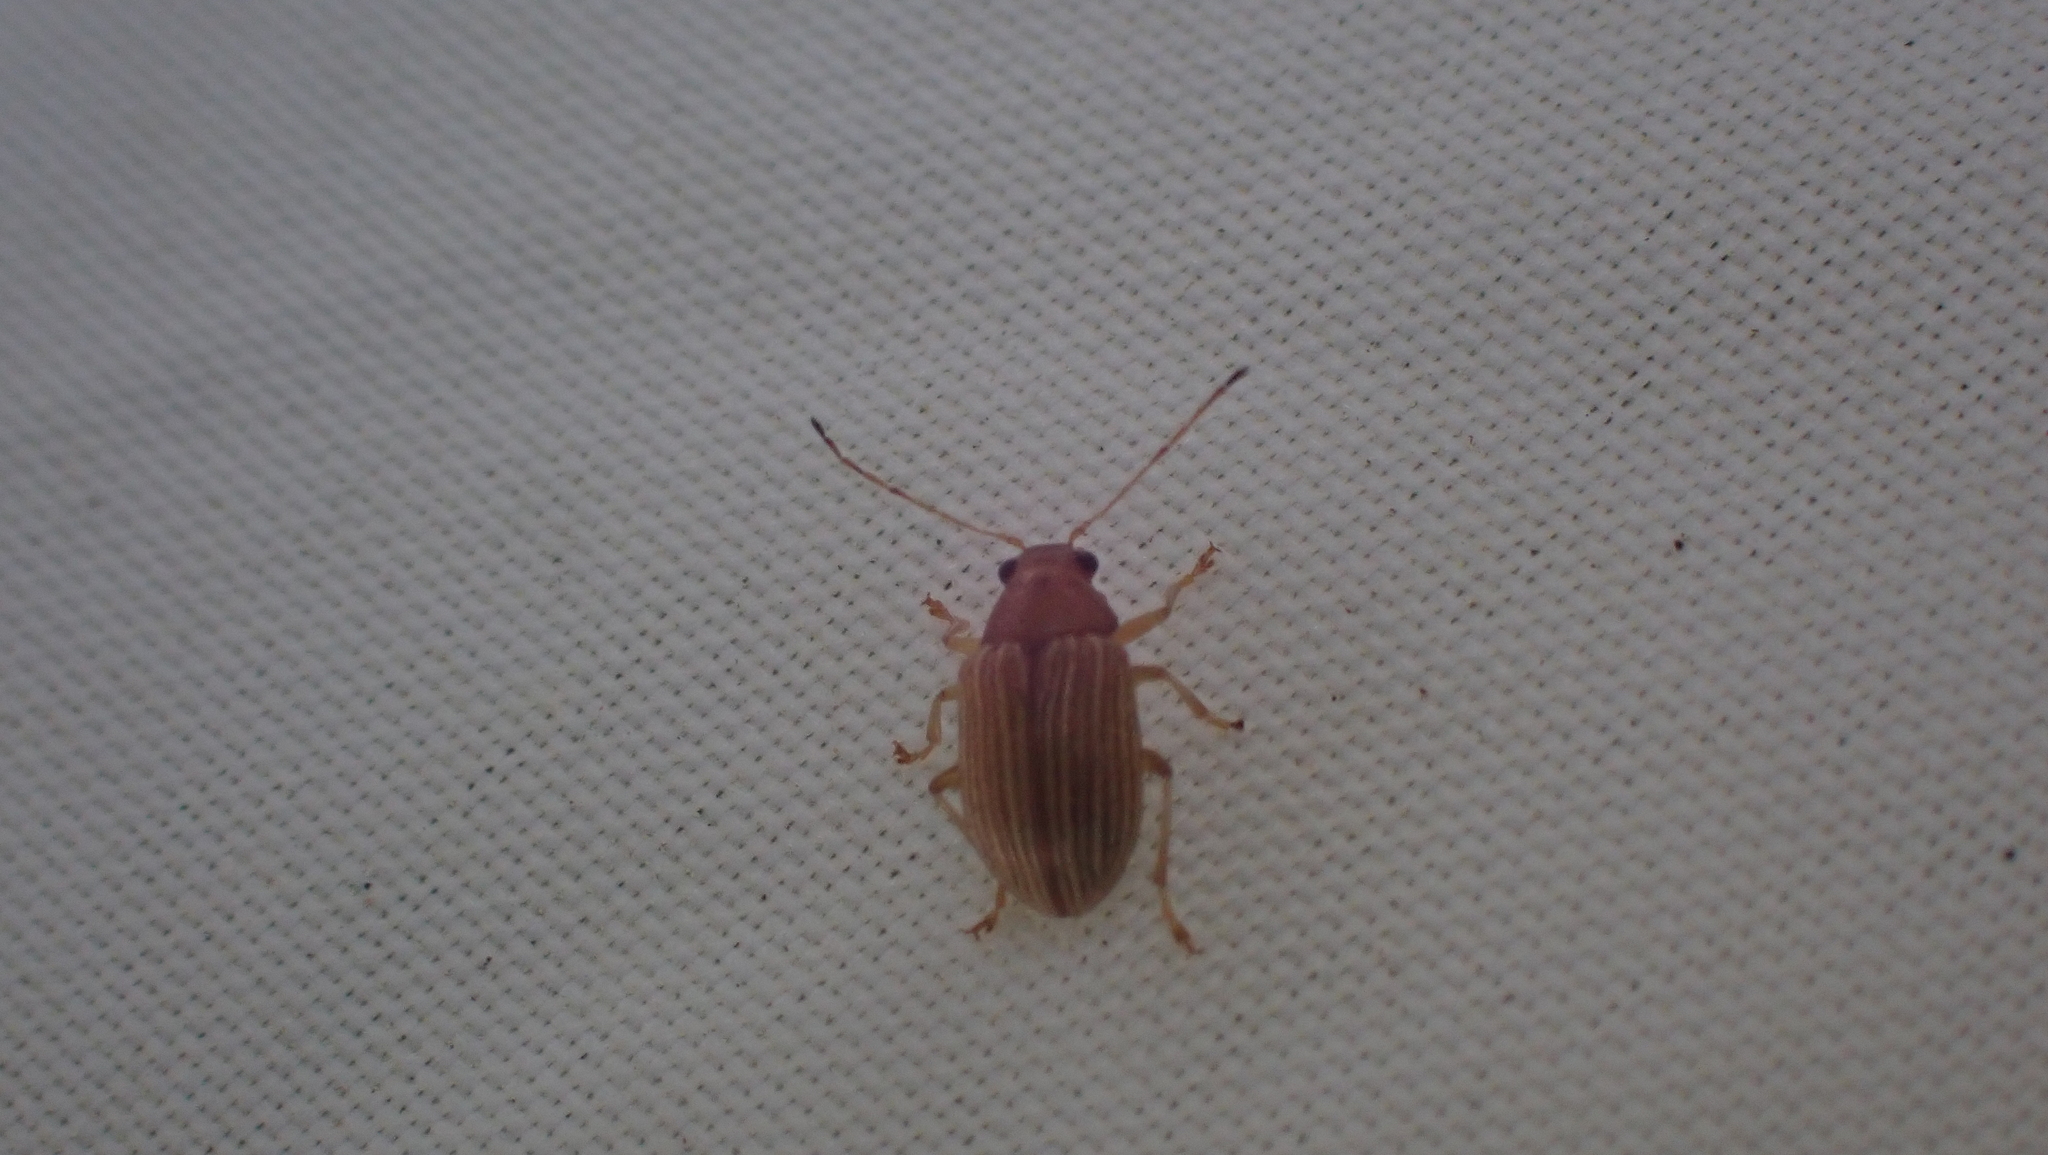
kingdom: Animalia
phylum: Arthropoda
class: Insecta
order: Coleoptera
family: Chrysomelidae
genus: Colaspis
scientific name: Colaspis brunnea
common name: Grape colaspis
